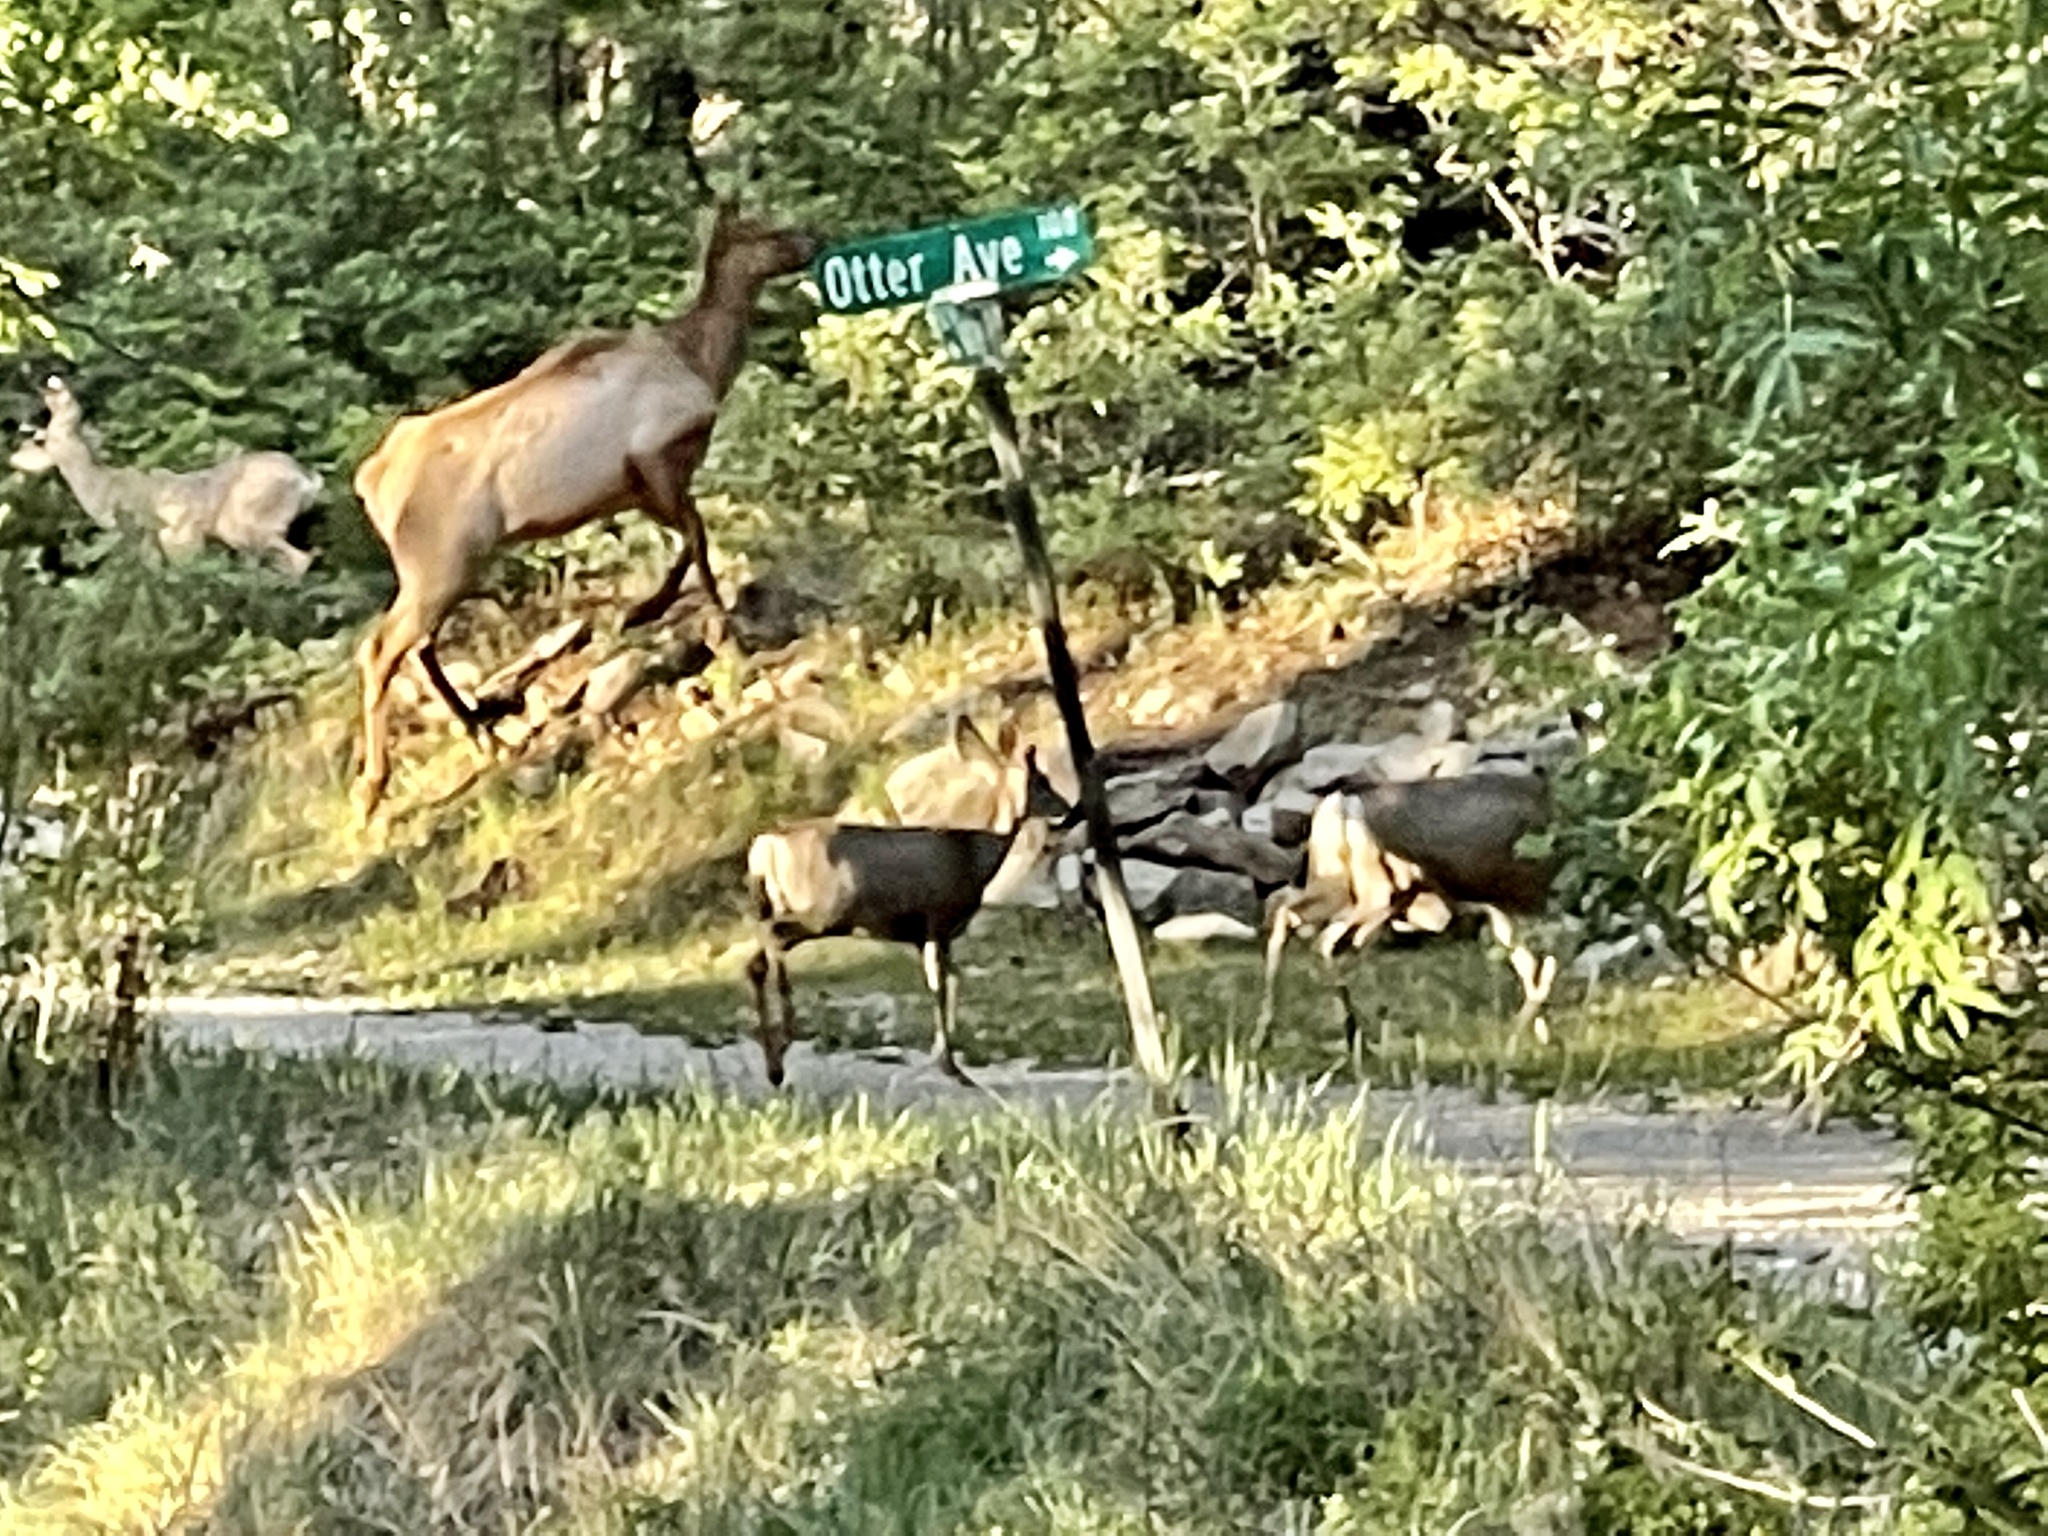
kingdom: Animalia
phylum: Chordata
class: Mammalia
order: Artiodactyla
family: Cervidae
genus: Odocoileus
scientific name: Odocoileus hemionus
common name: Mule deer
